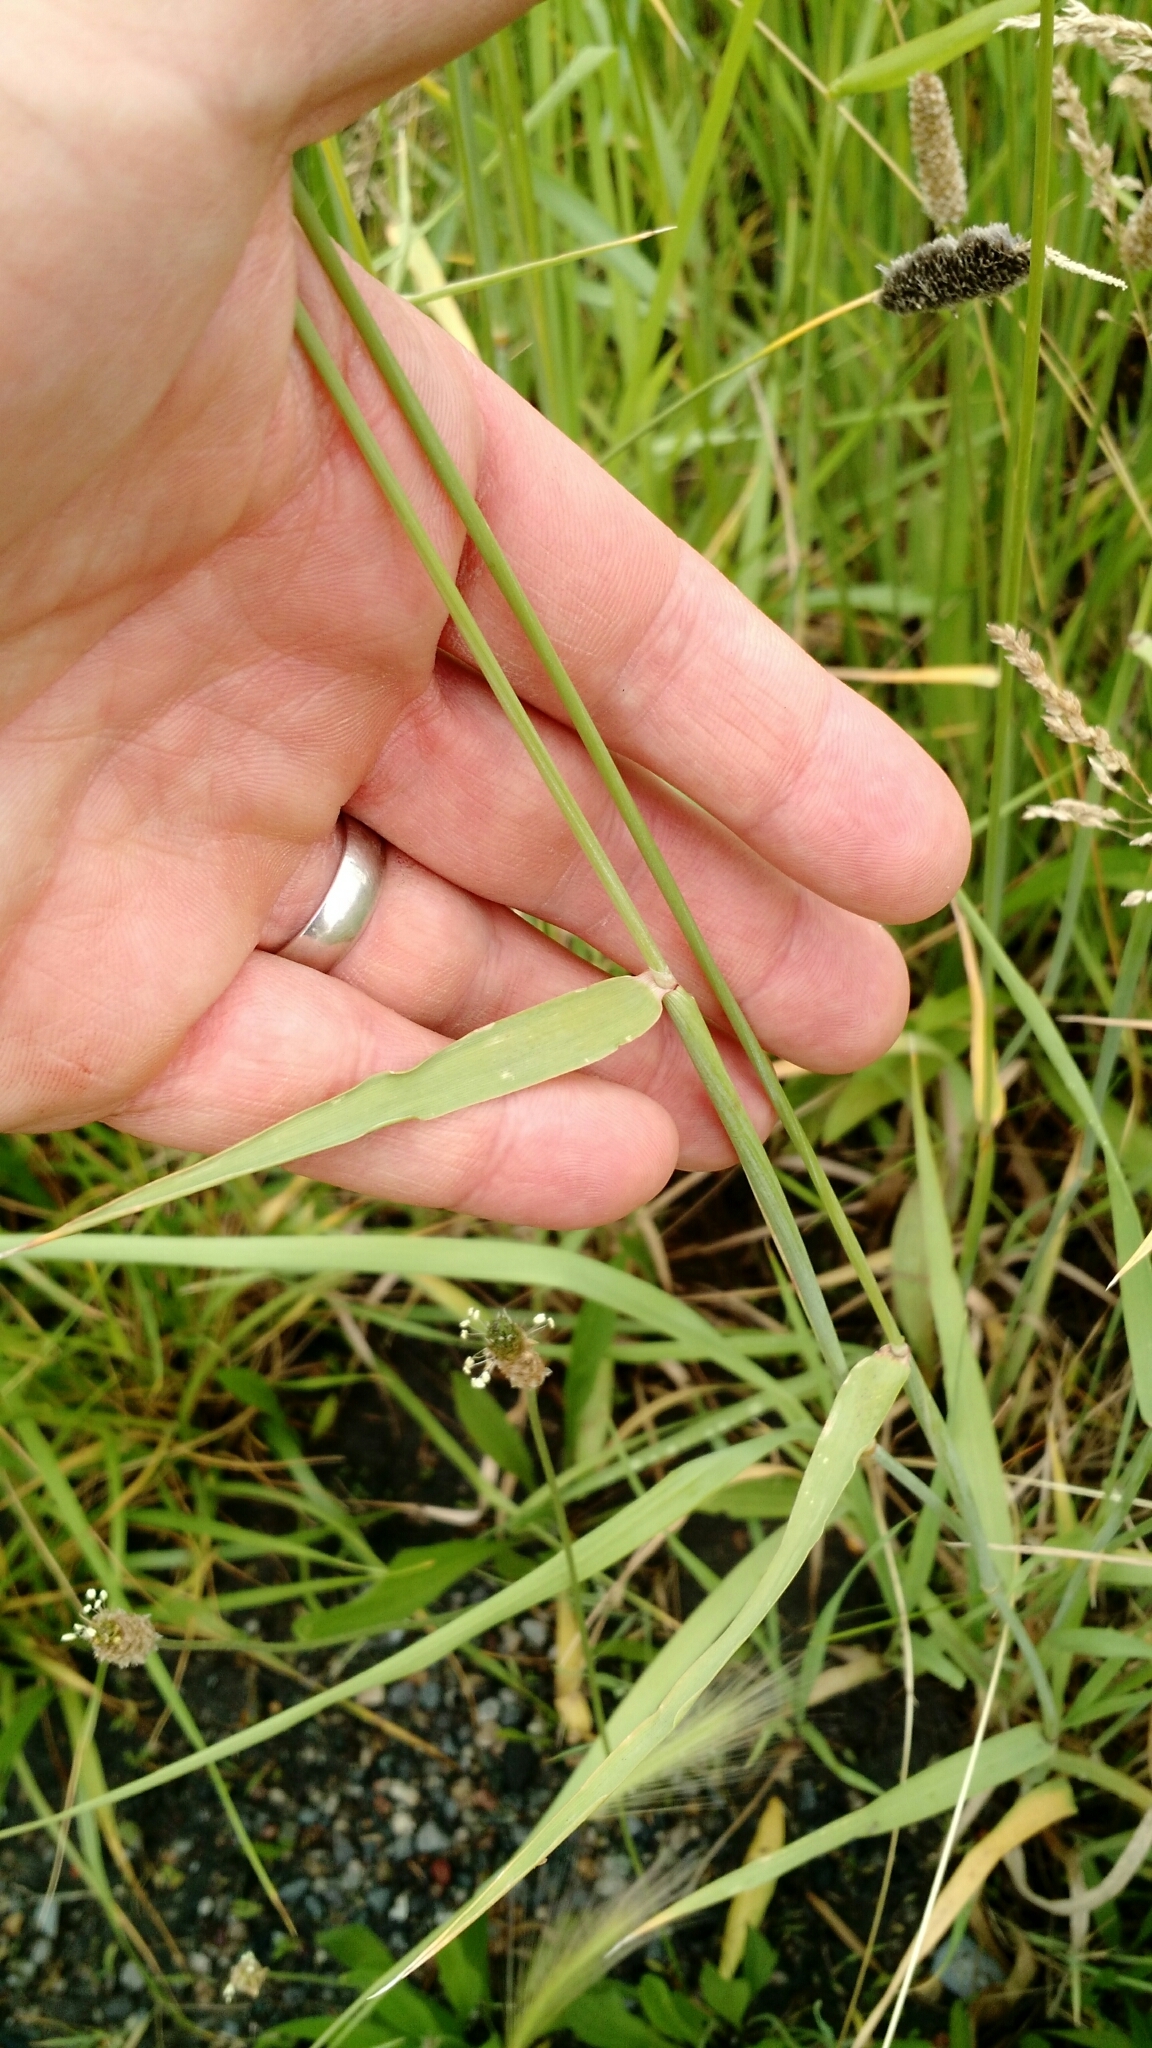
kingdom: Plantae
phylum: Tracheophyta
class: Liliopsida
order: Poales
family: Poaceae
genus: Alopecurus
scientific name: Alopecurus arundinaceus
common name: Creeping meadow foxtail
